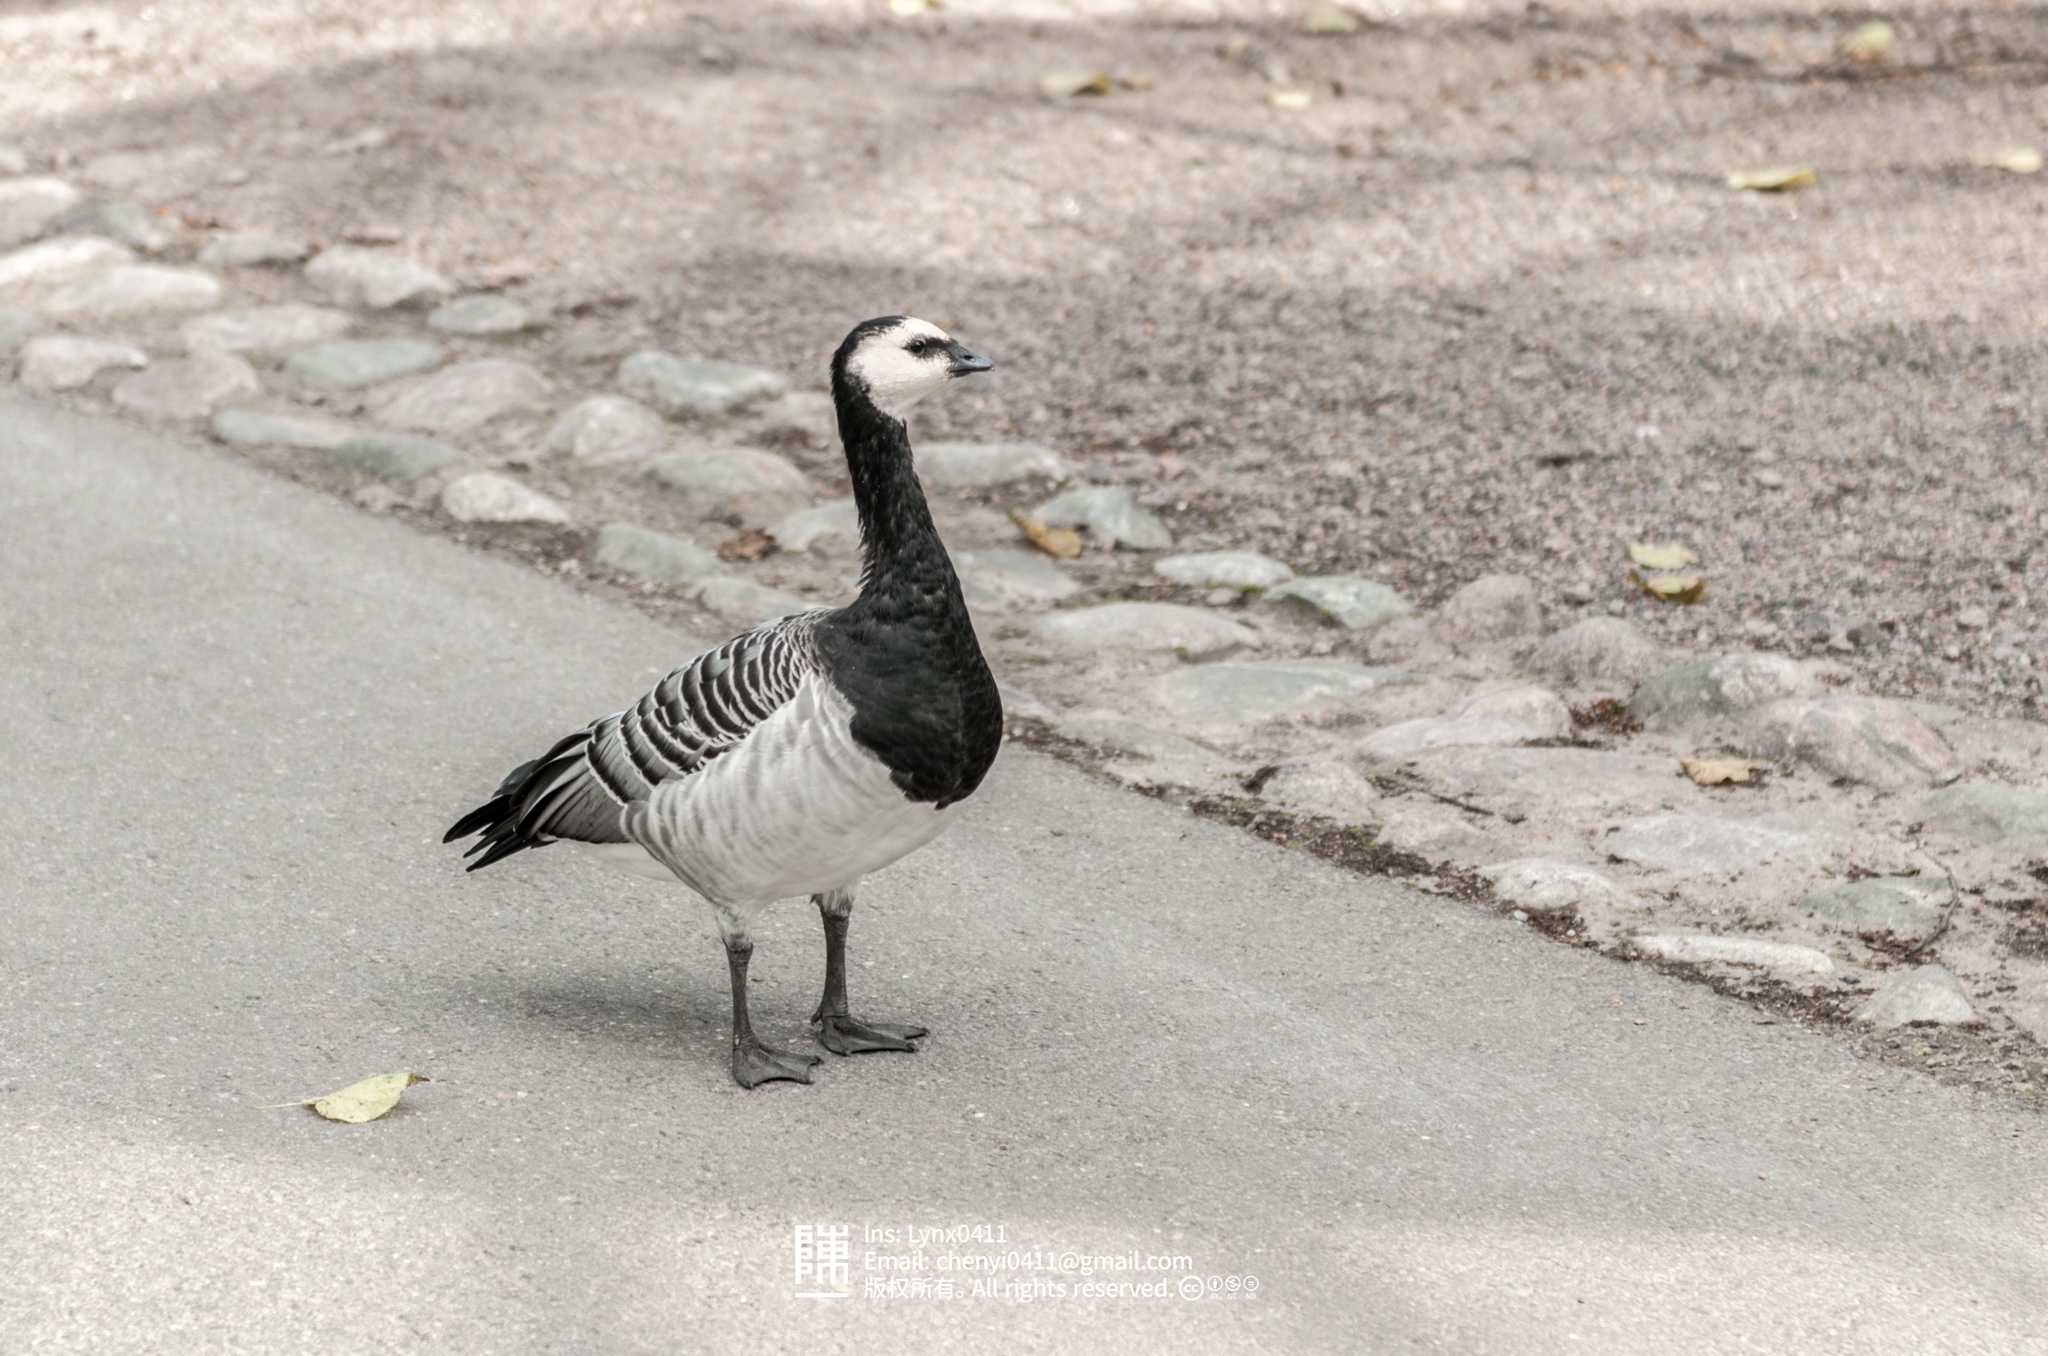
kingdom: Animalia
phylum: Chordata
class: Aves
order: Passeriformes
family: Corvidae
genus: Corvus
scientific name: Corvus cornix
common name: Hooded crow
